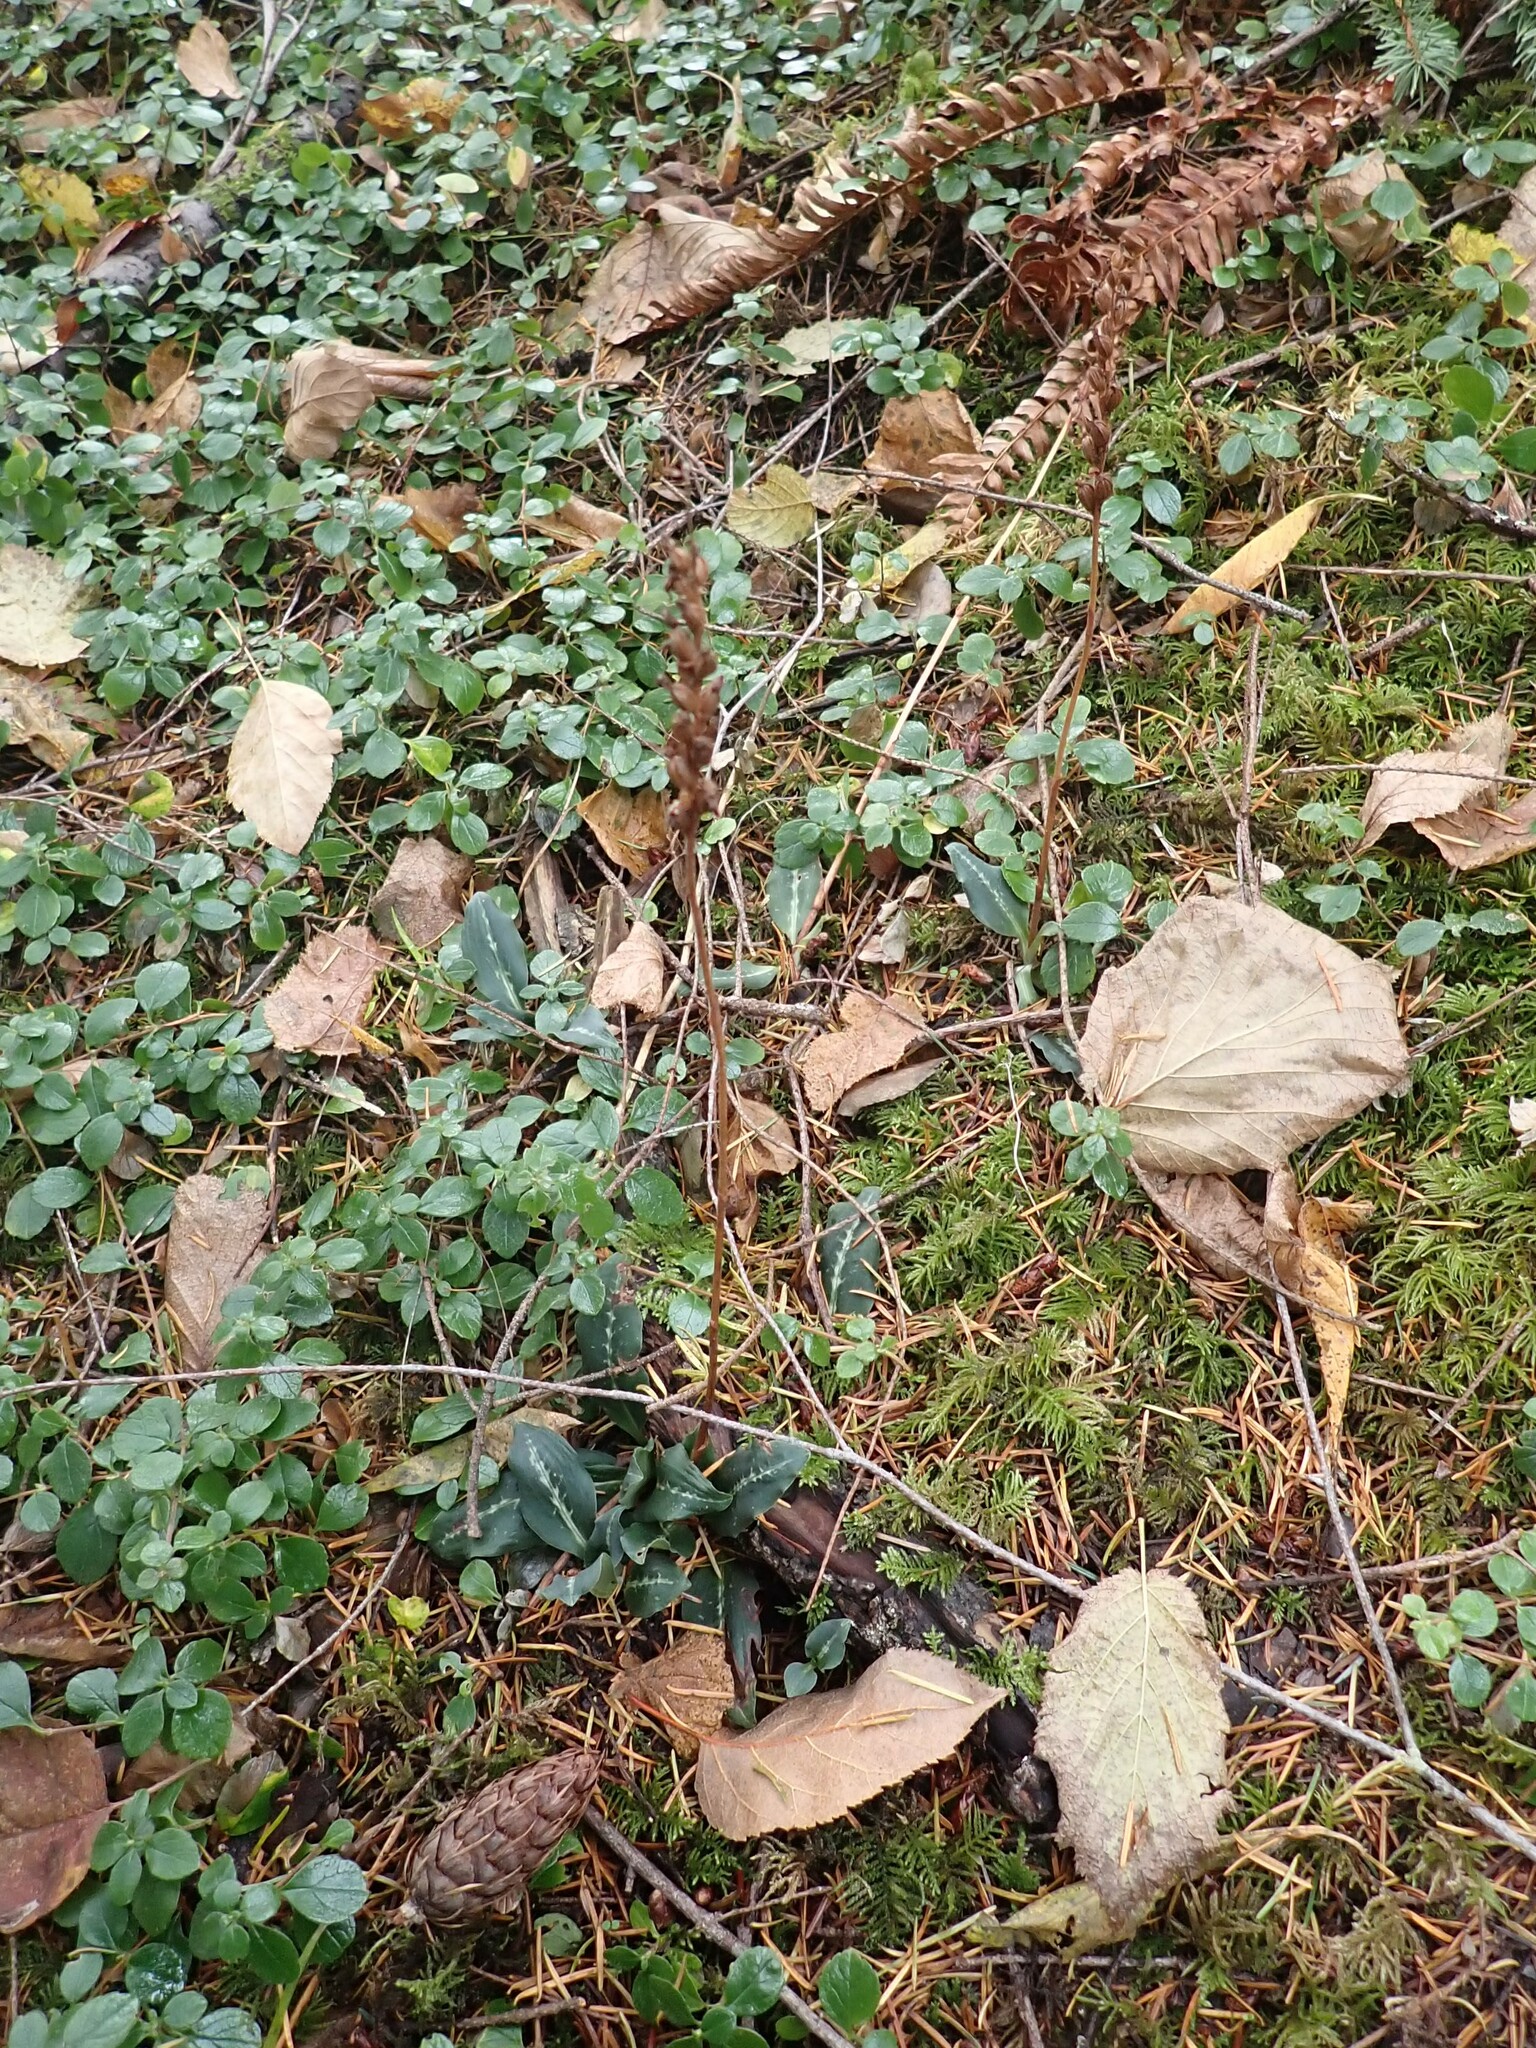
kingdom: Plantae
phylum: Tracheophyta
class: Liliopsida
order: Asparagales
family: Orchidaceae
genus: Goodyera
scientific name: Goodyera oblongifolia
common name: Giant rattlesnake-plantain
